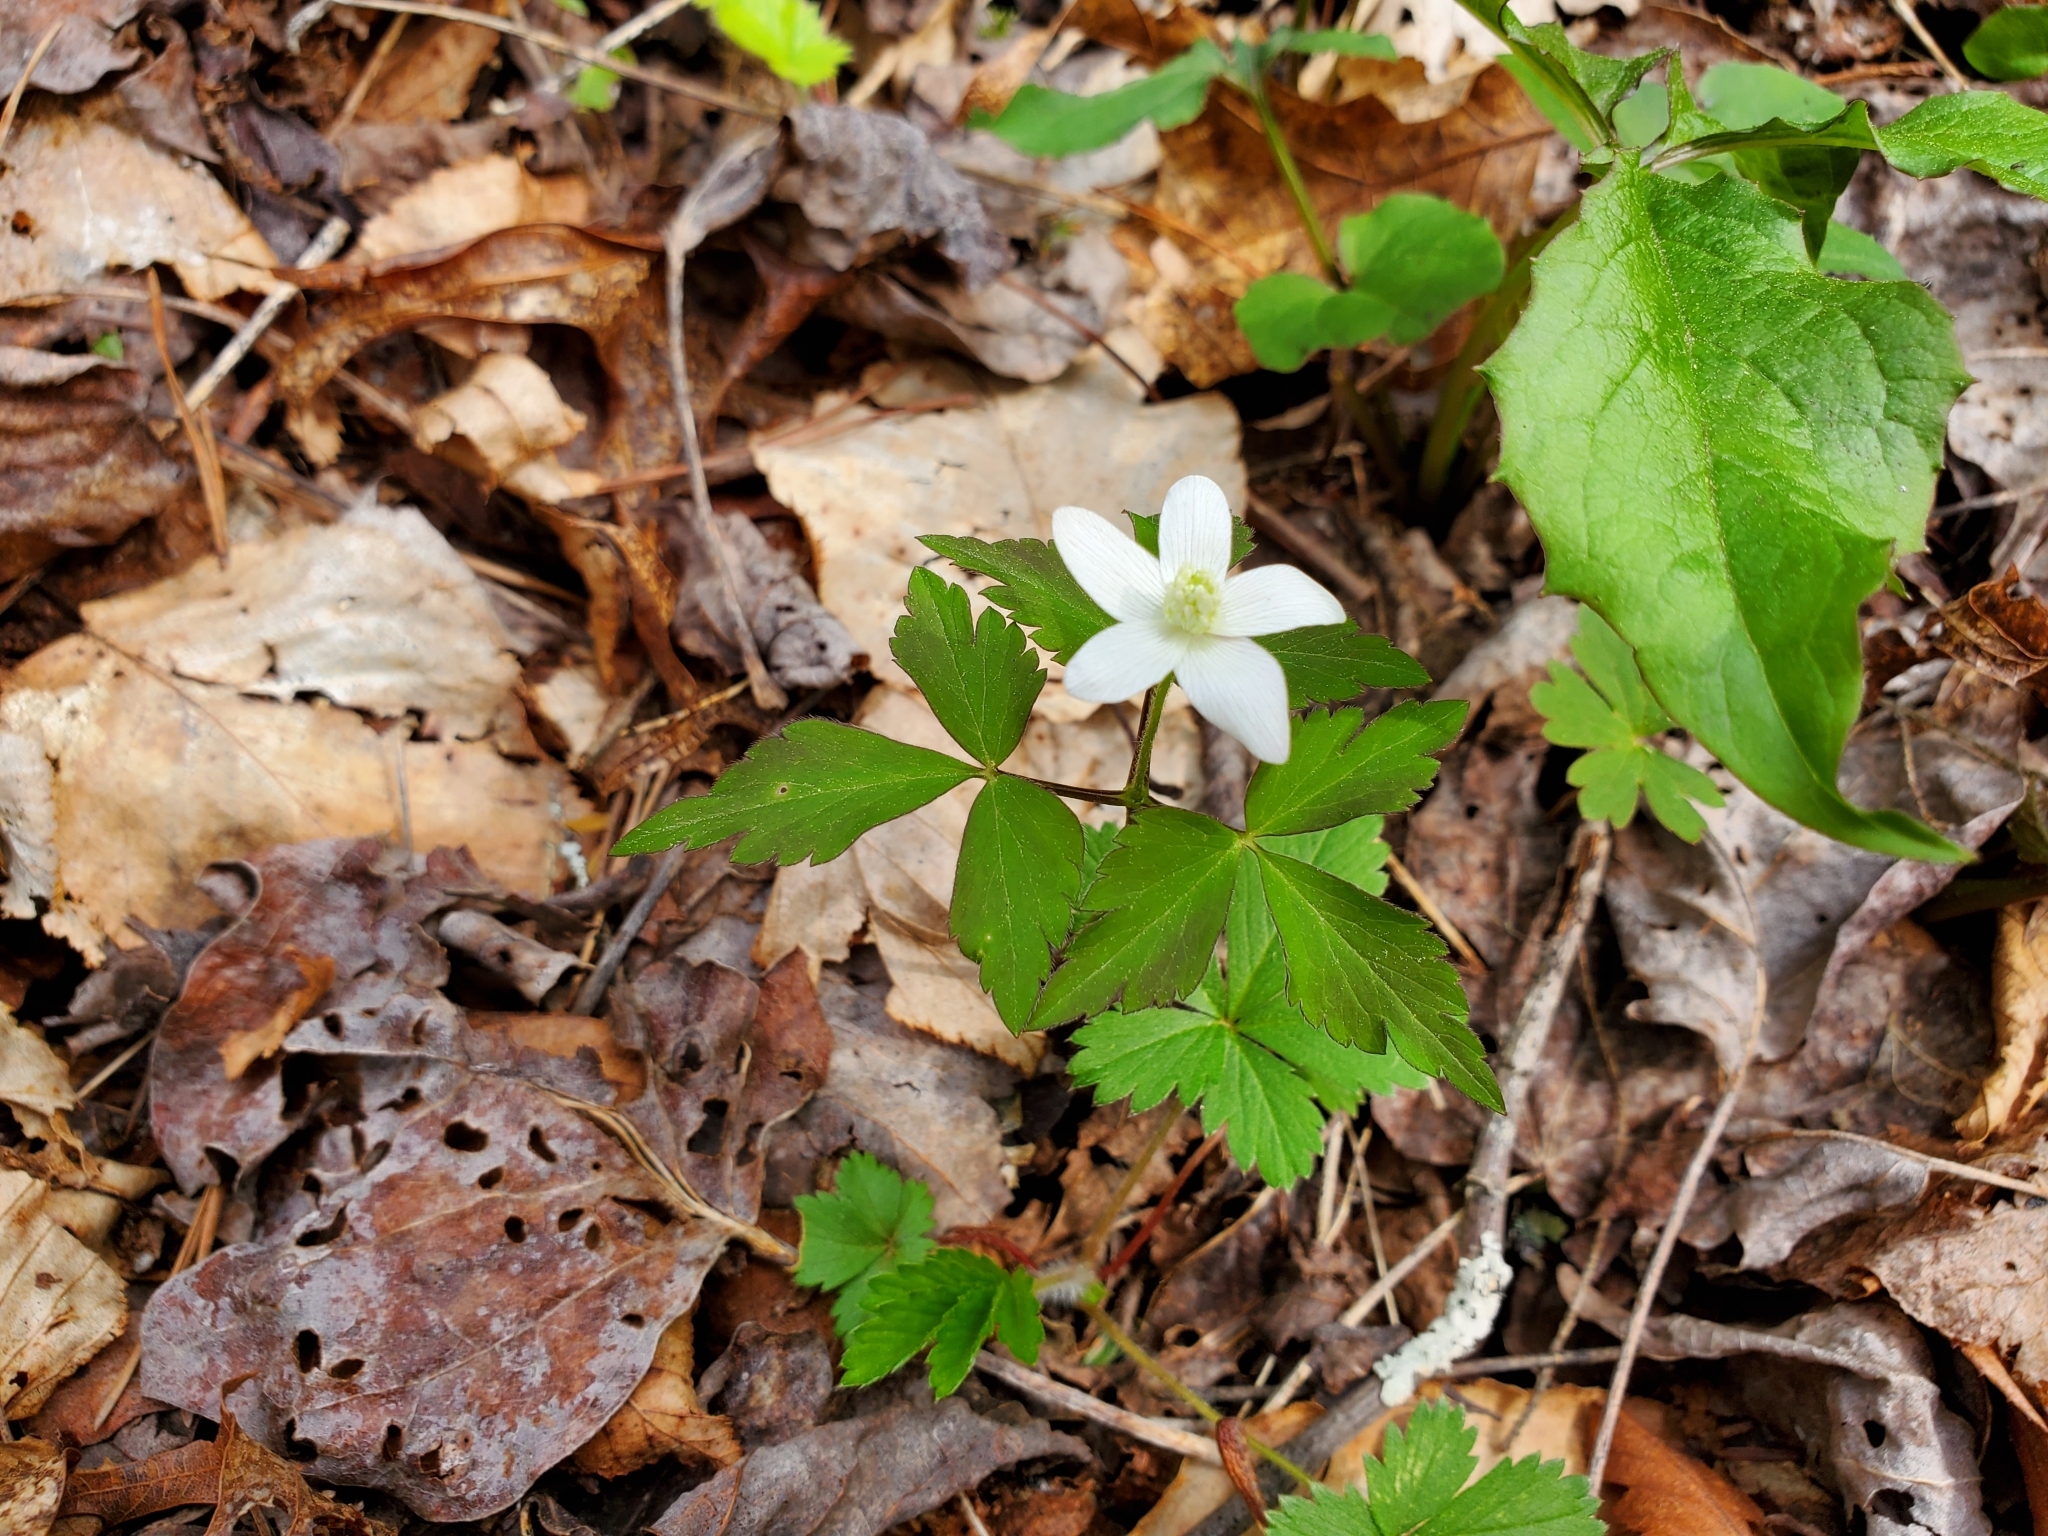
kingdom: Plantae
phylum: Tracheophyta
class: Magnoliopsida
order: Ranunculales
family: Ranunculaceae
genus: Anemone
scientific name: Anemone quinquefolia
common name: Wood anemone
